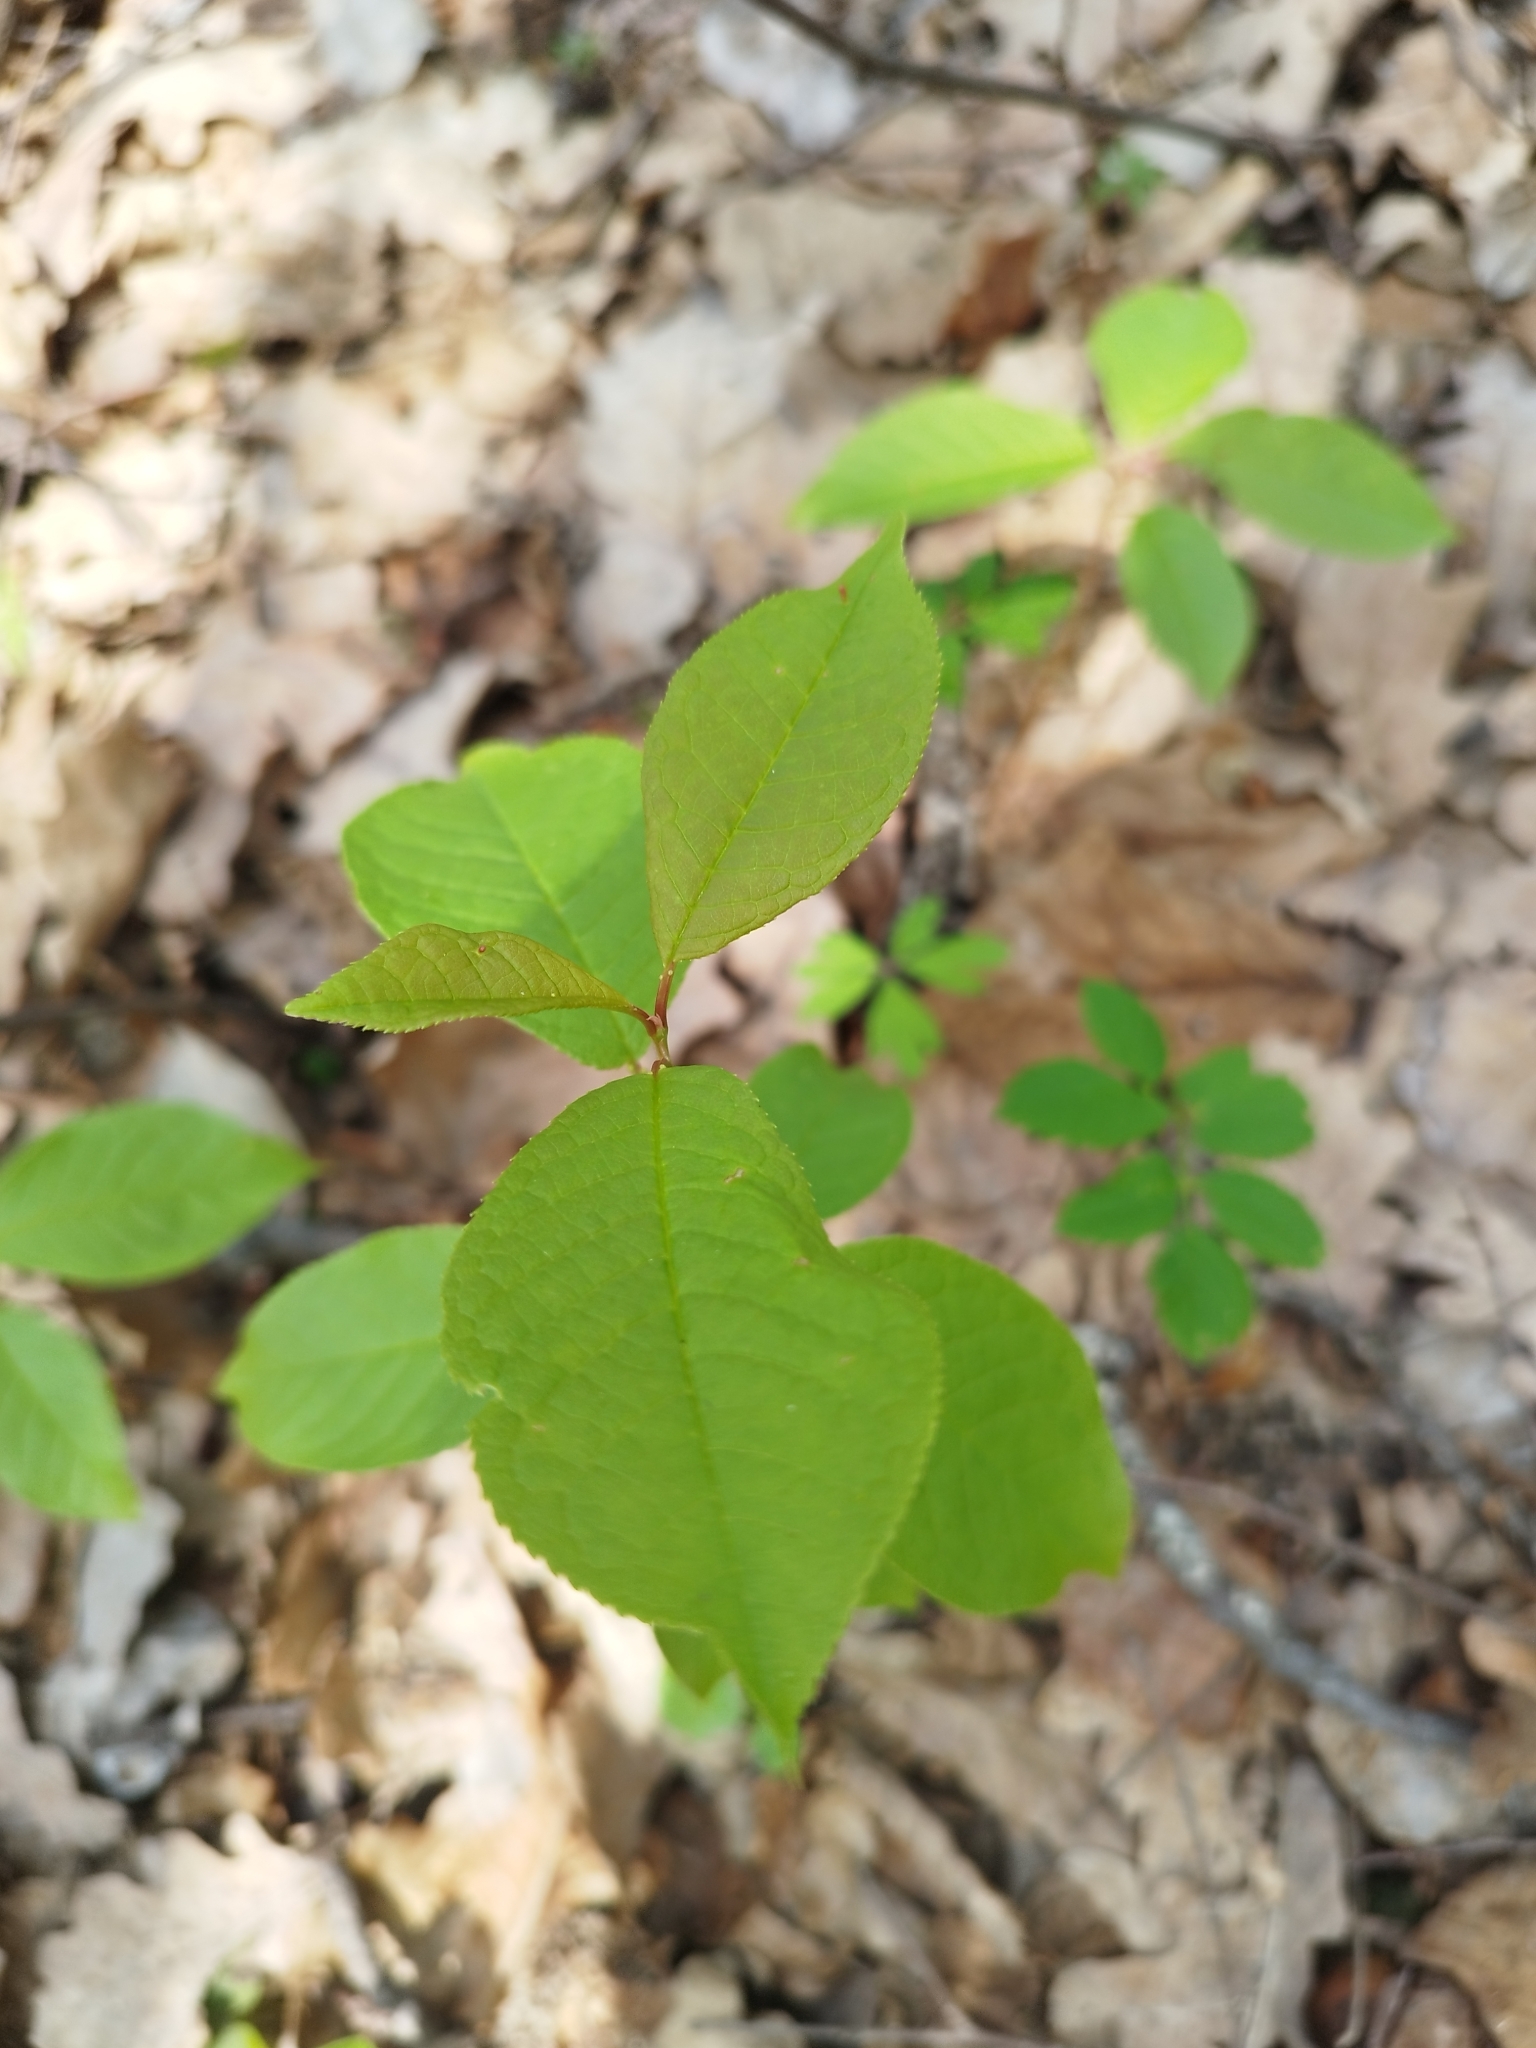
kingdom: Plantae
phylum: Tracheophyta
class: Magnoliopsida
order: Rosales
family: Rosaceae
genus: Prunus
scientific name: Prunus padus
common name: Bird cherry
